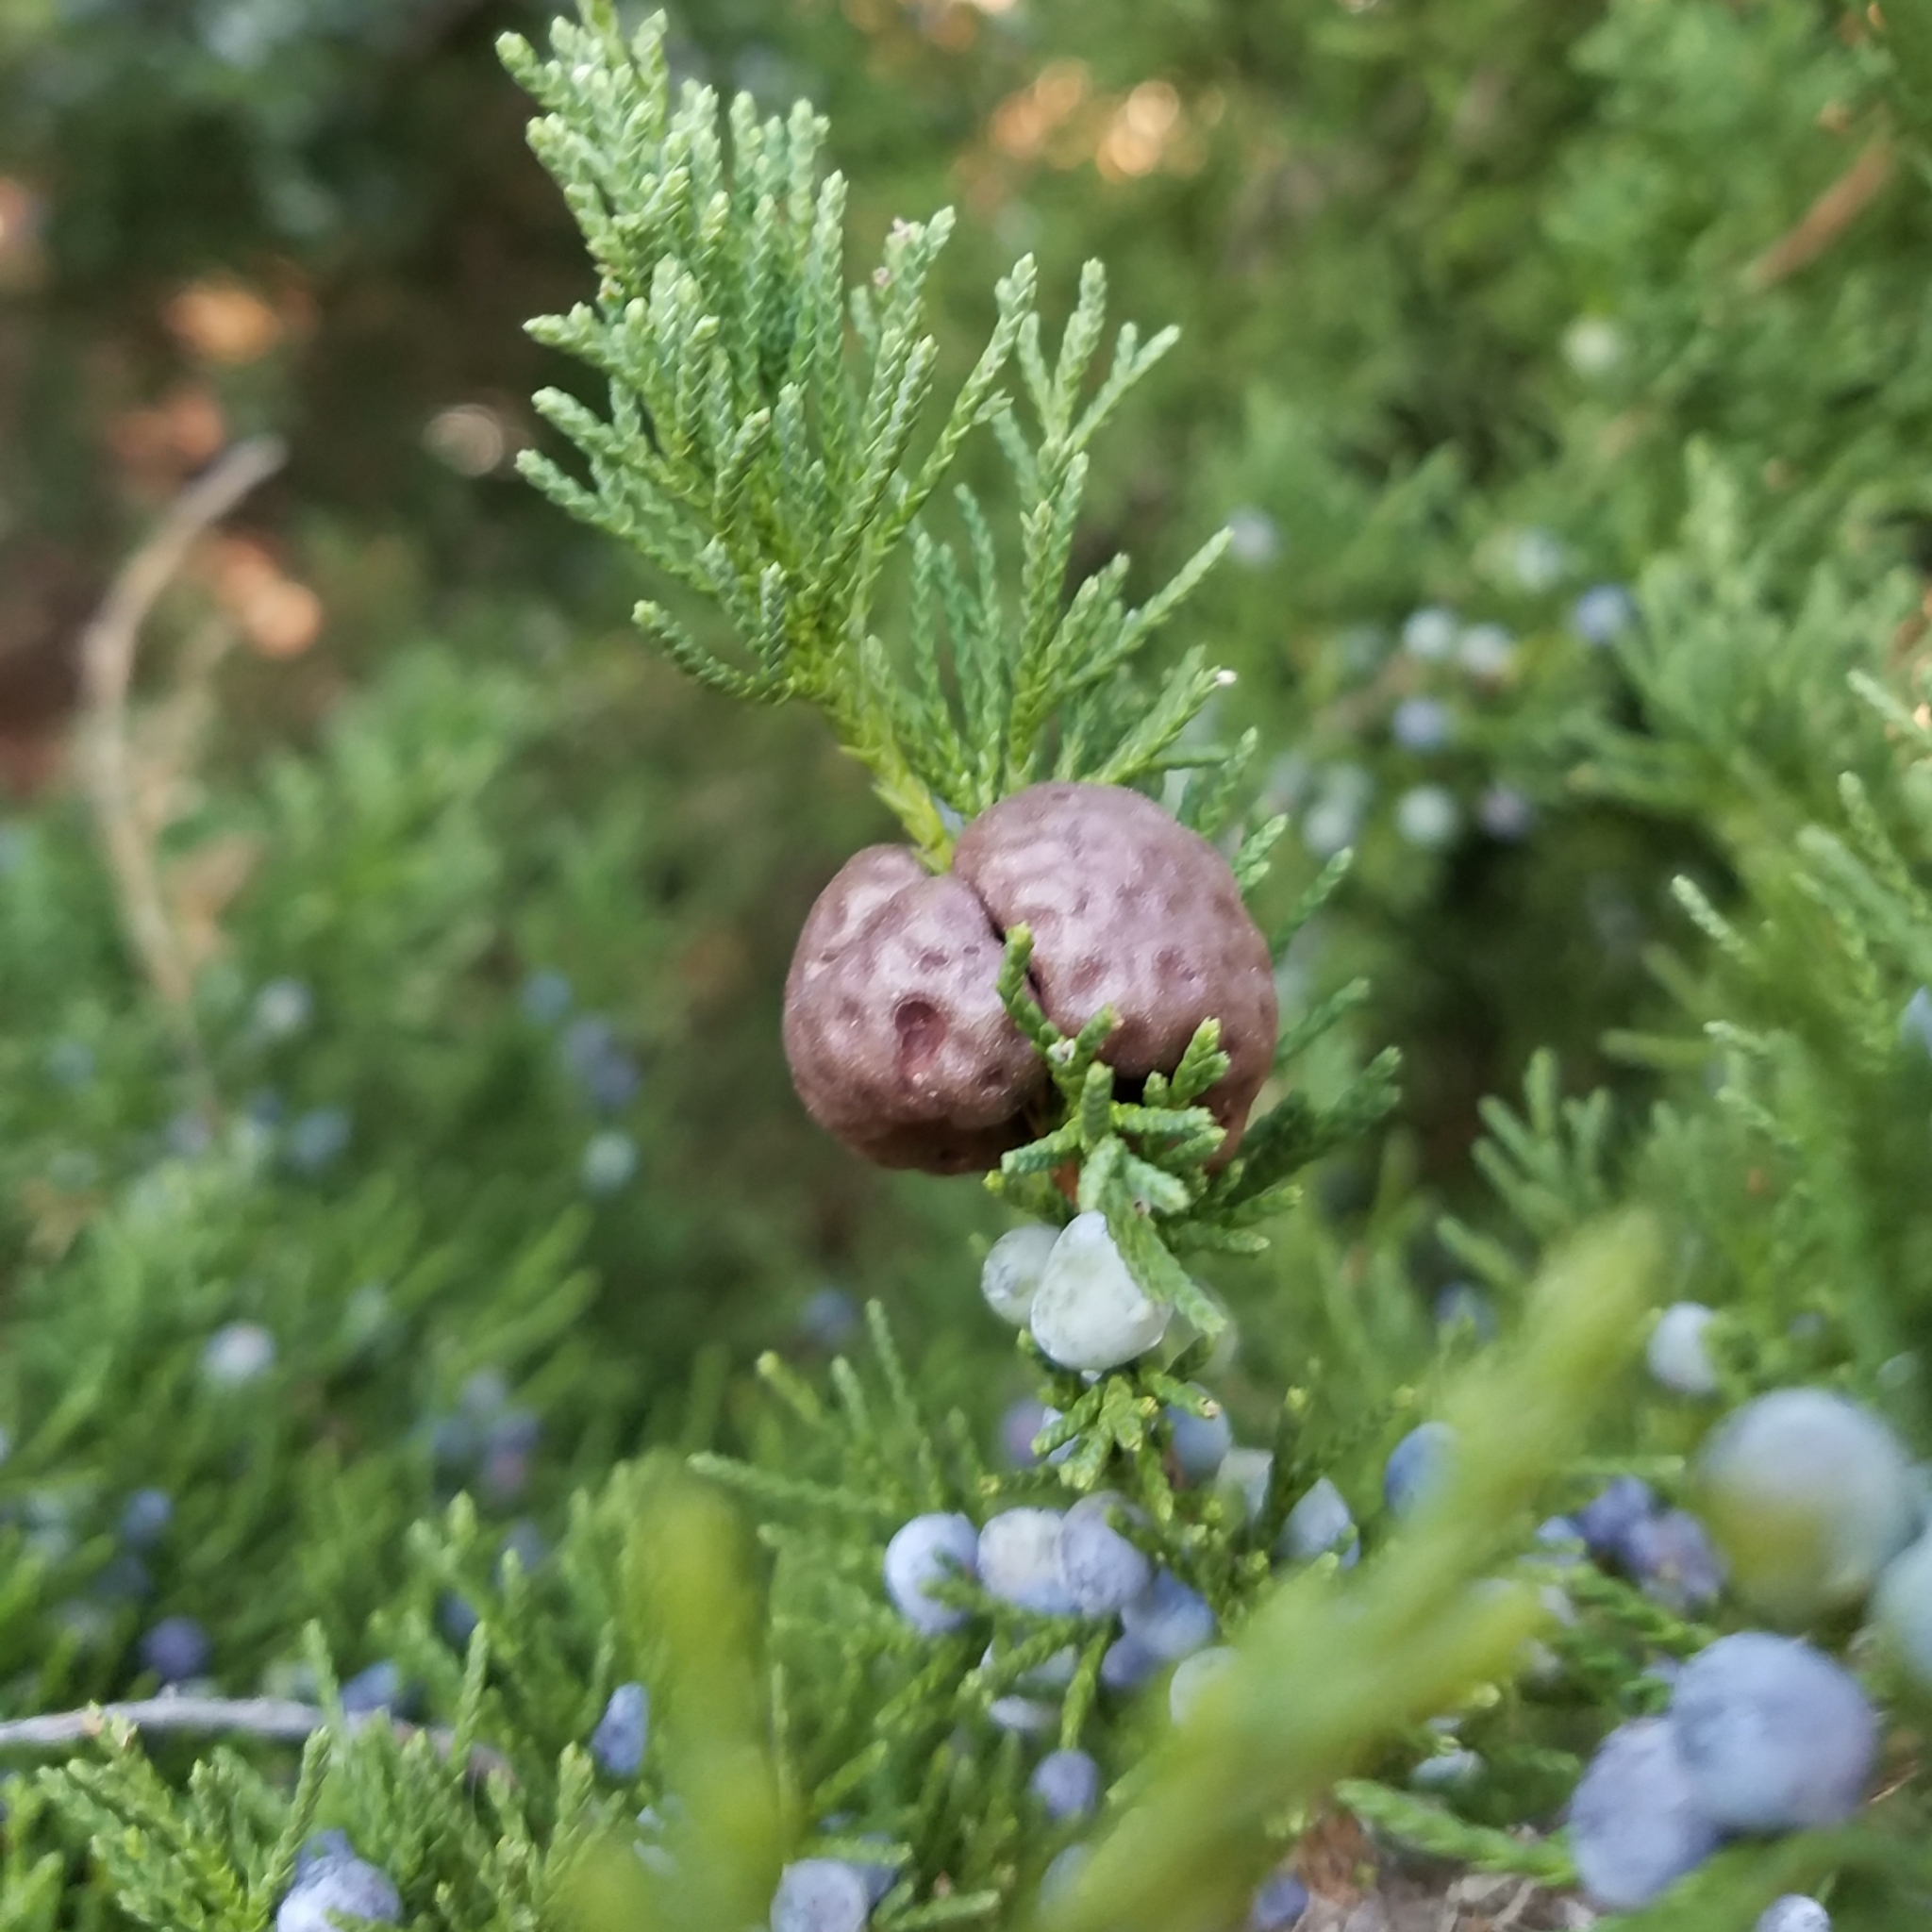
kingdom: Fungi
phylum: Basidiomycota
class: Pucciniomycetes
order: Pucciniales
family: Gymnosporangiaceae
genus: Gymnosporangium
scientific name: Gymnosporangium juniperi-virginianae
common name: Juniper-apple rust
